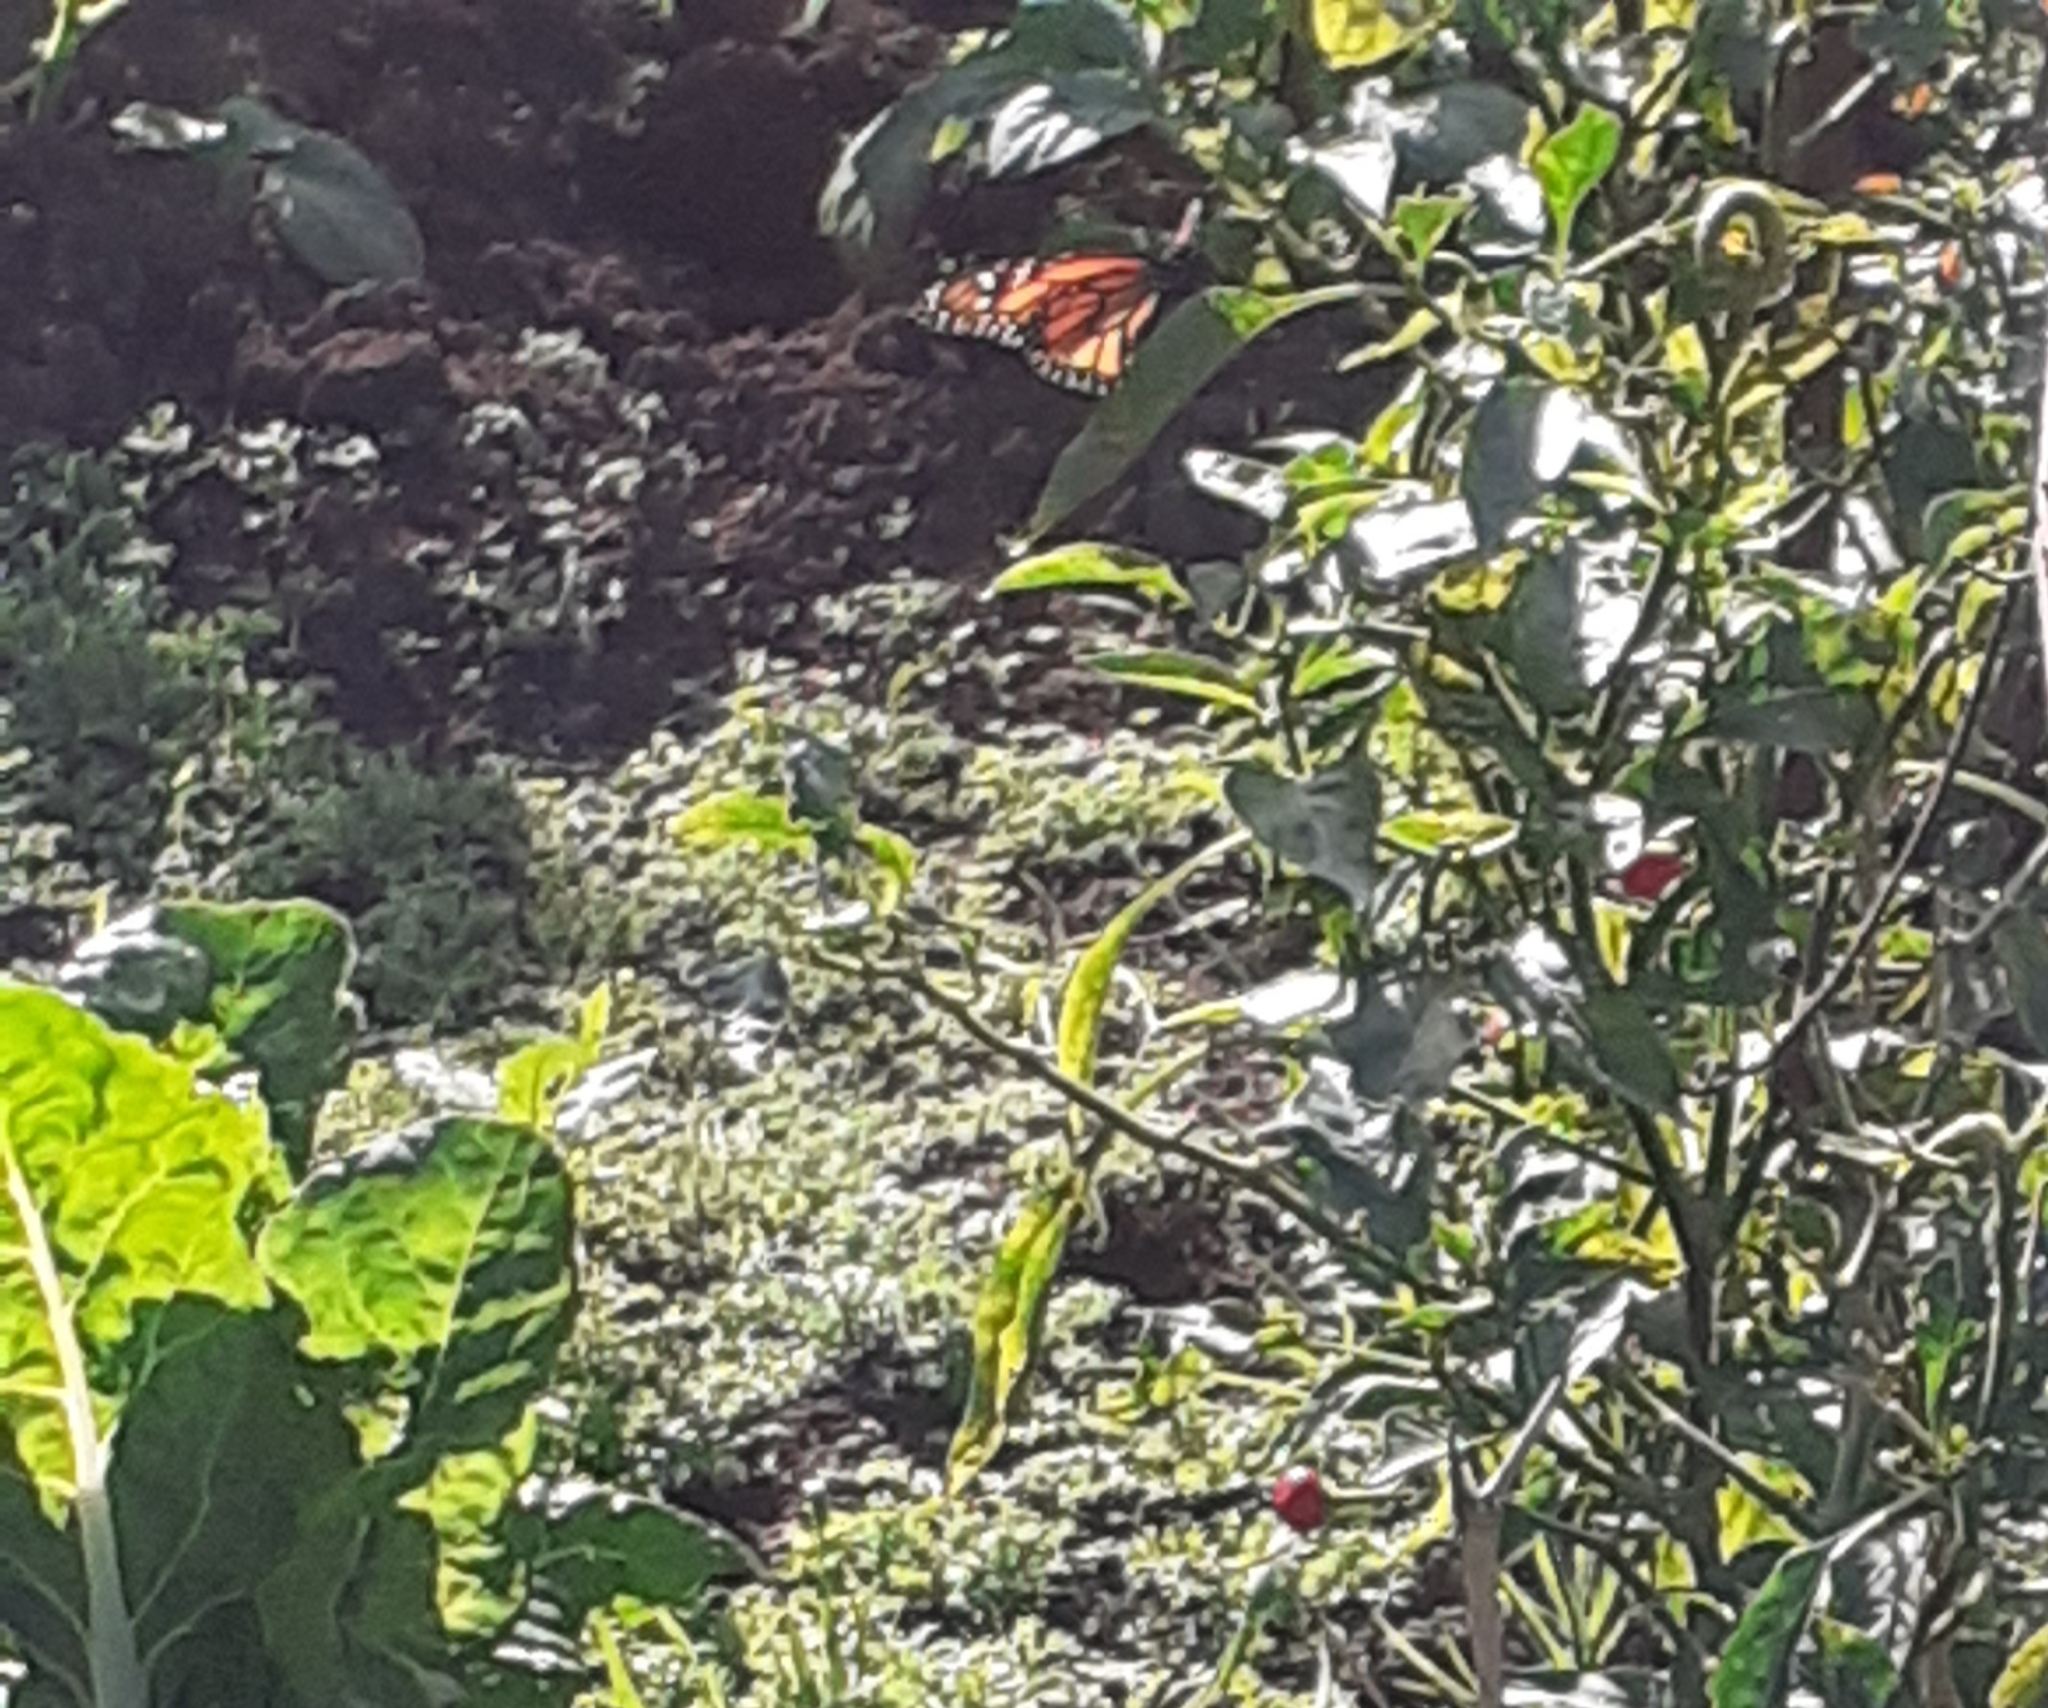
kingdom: Animalia
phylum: Arthropoda
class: Insecta
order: Lepidoptera
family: Nymphalidae
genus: Danaus
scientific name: Danaus plexippus
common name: Monarch
